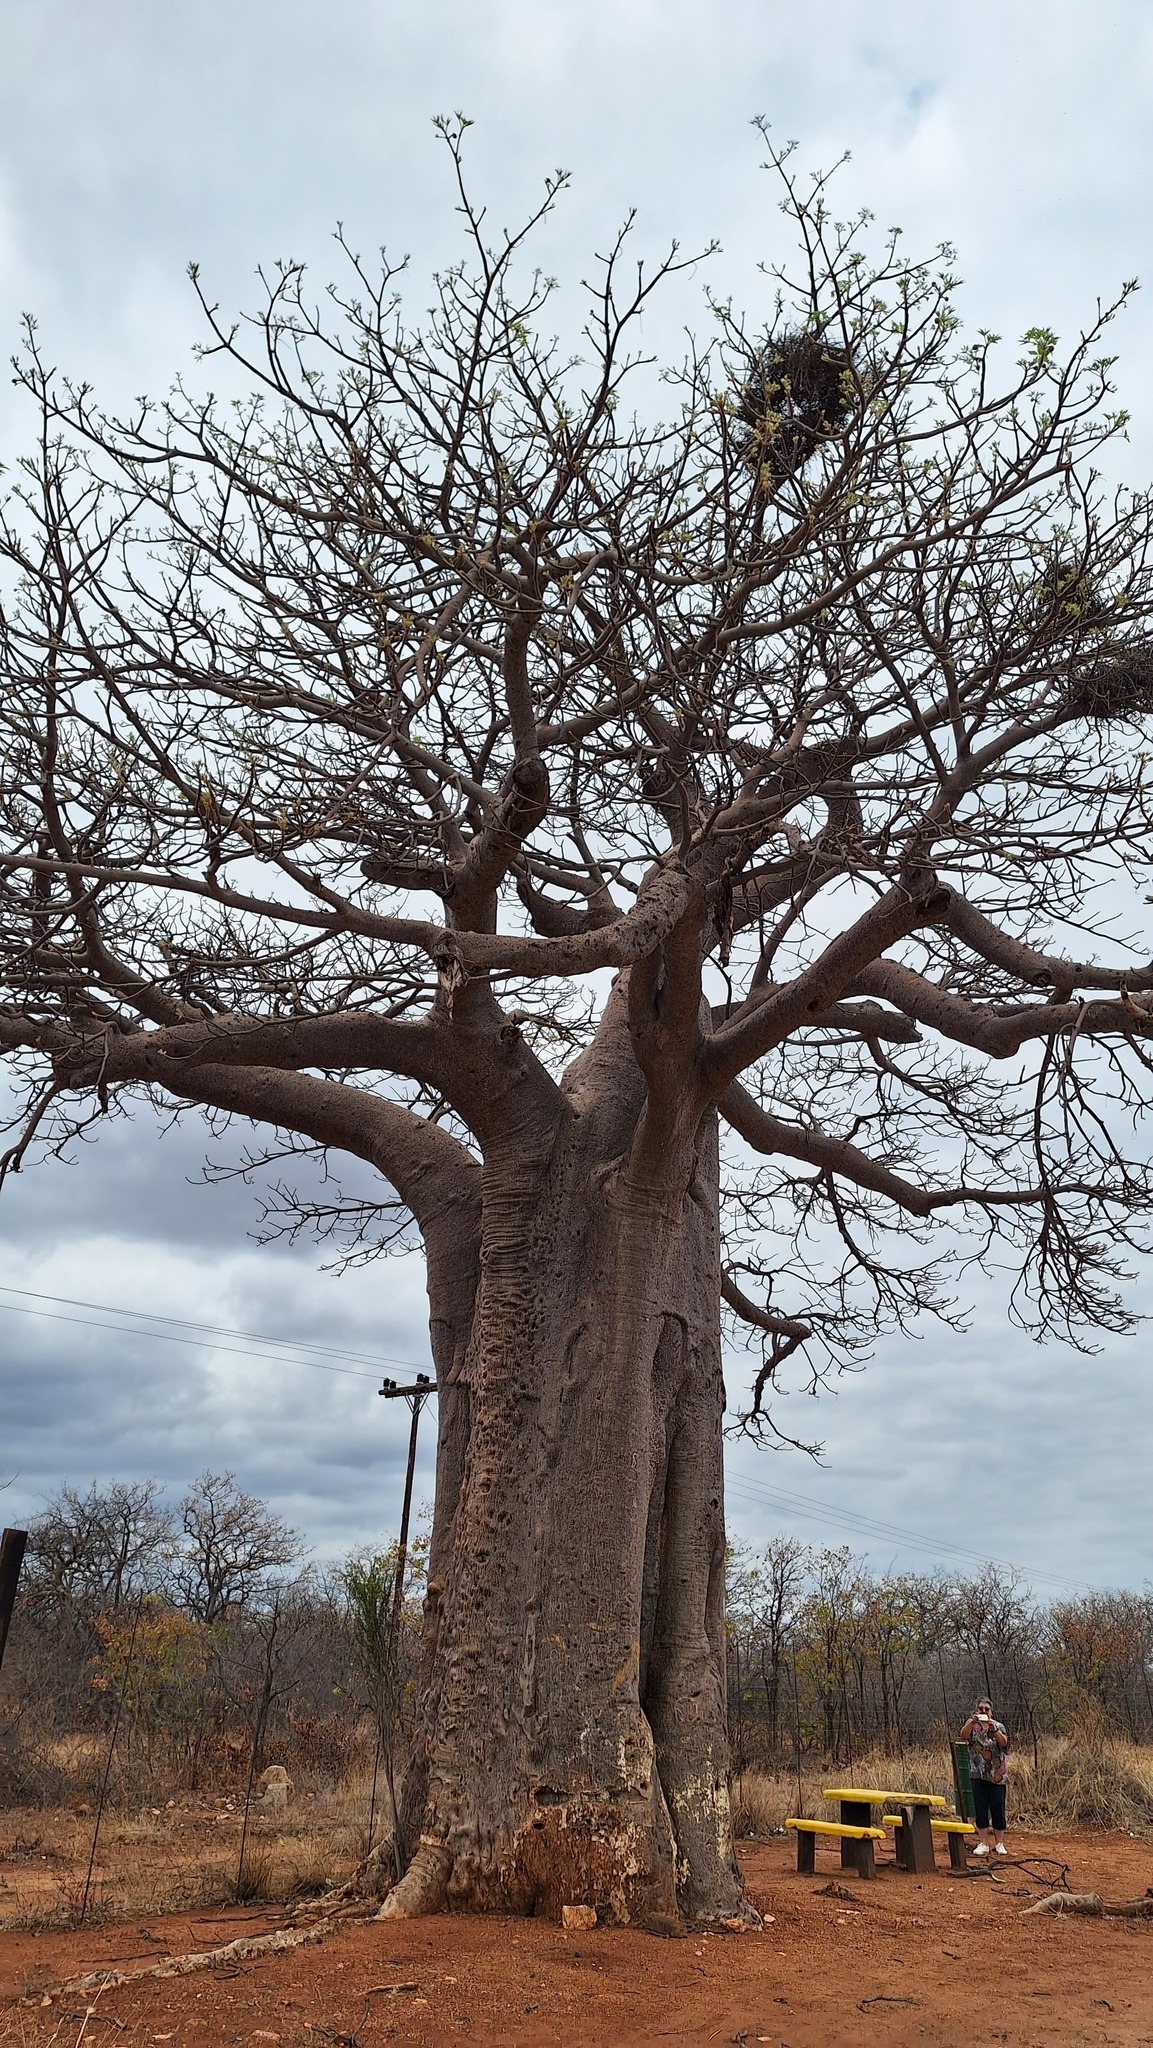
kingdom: Plantae
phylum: Tracheophyta
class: Magnoliopsida
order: Malvales
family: Malvaceae
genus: Adansonia
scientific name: Adansonia digitata
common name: Dead-rat-tree
